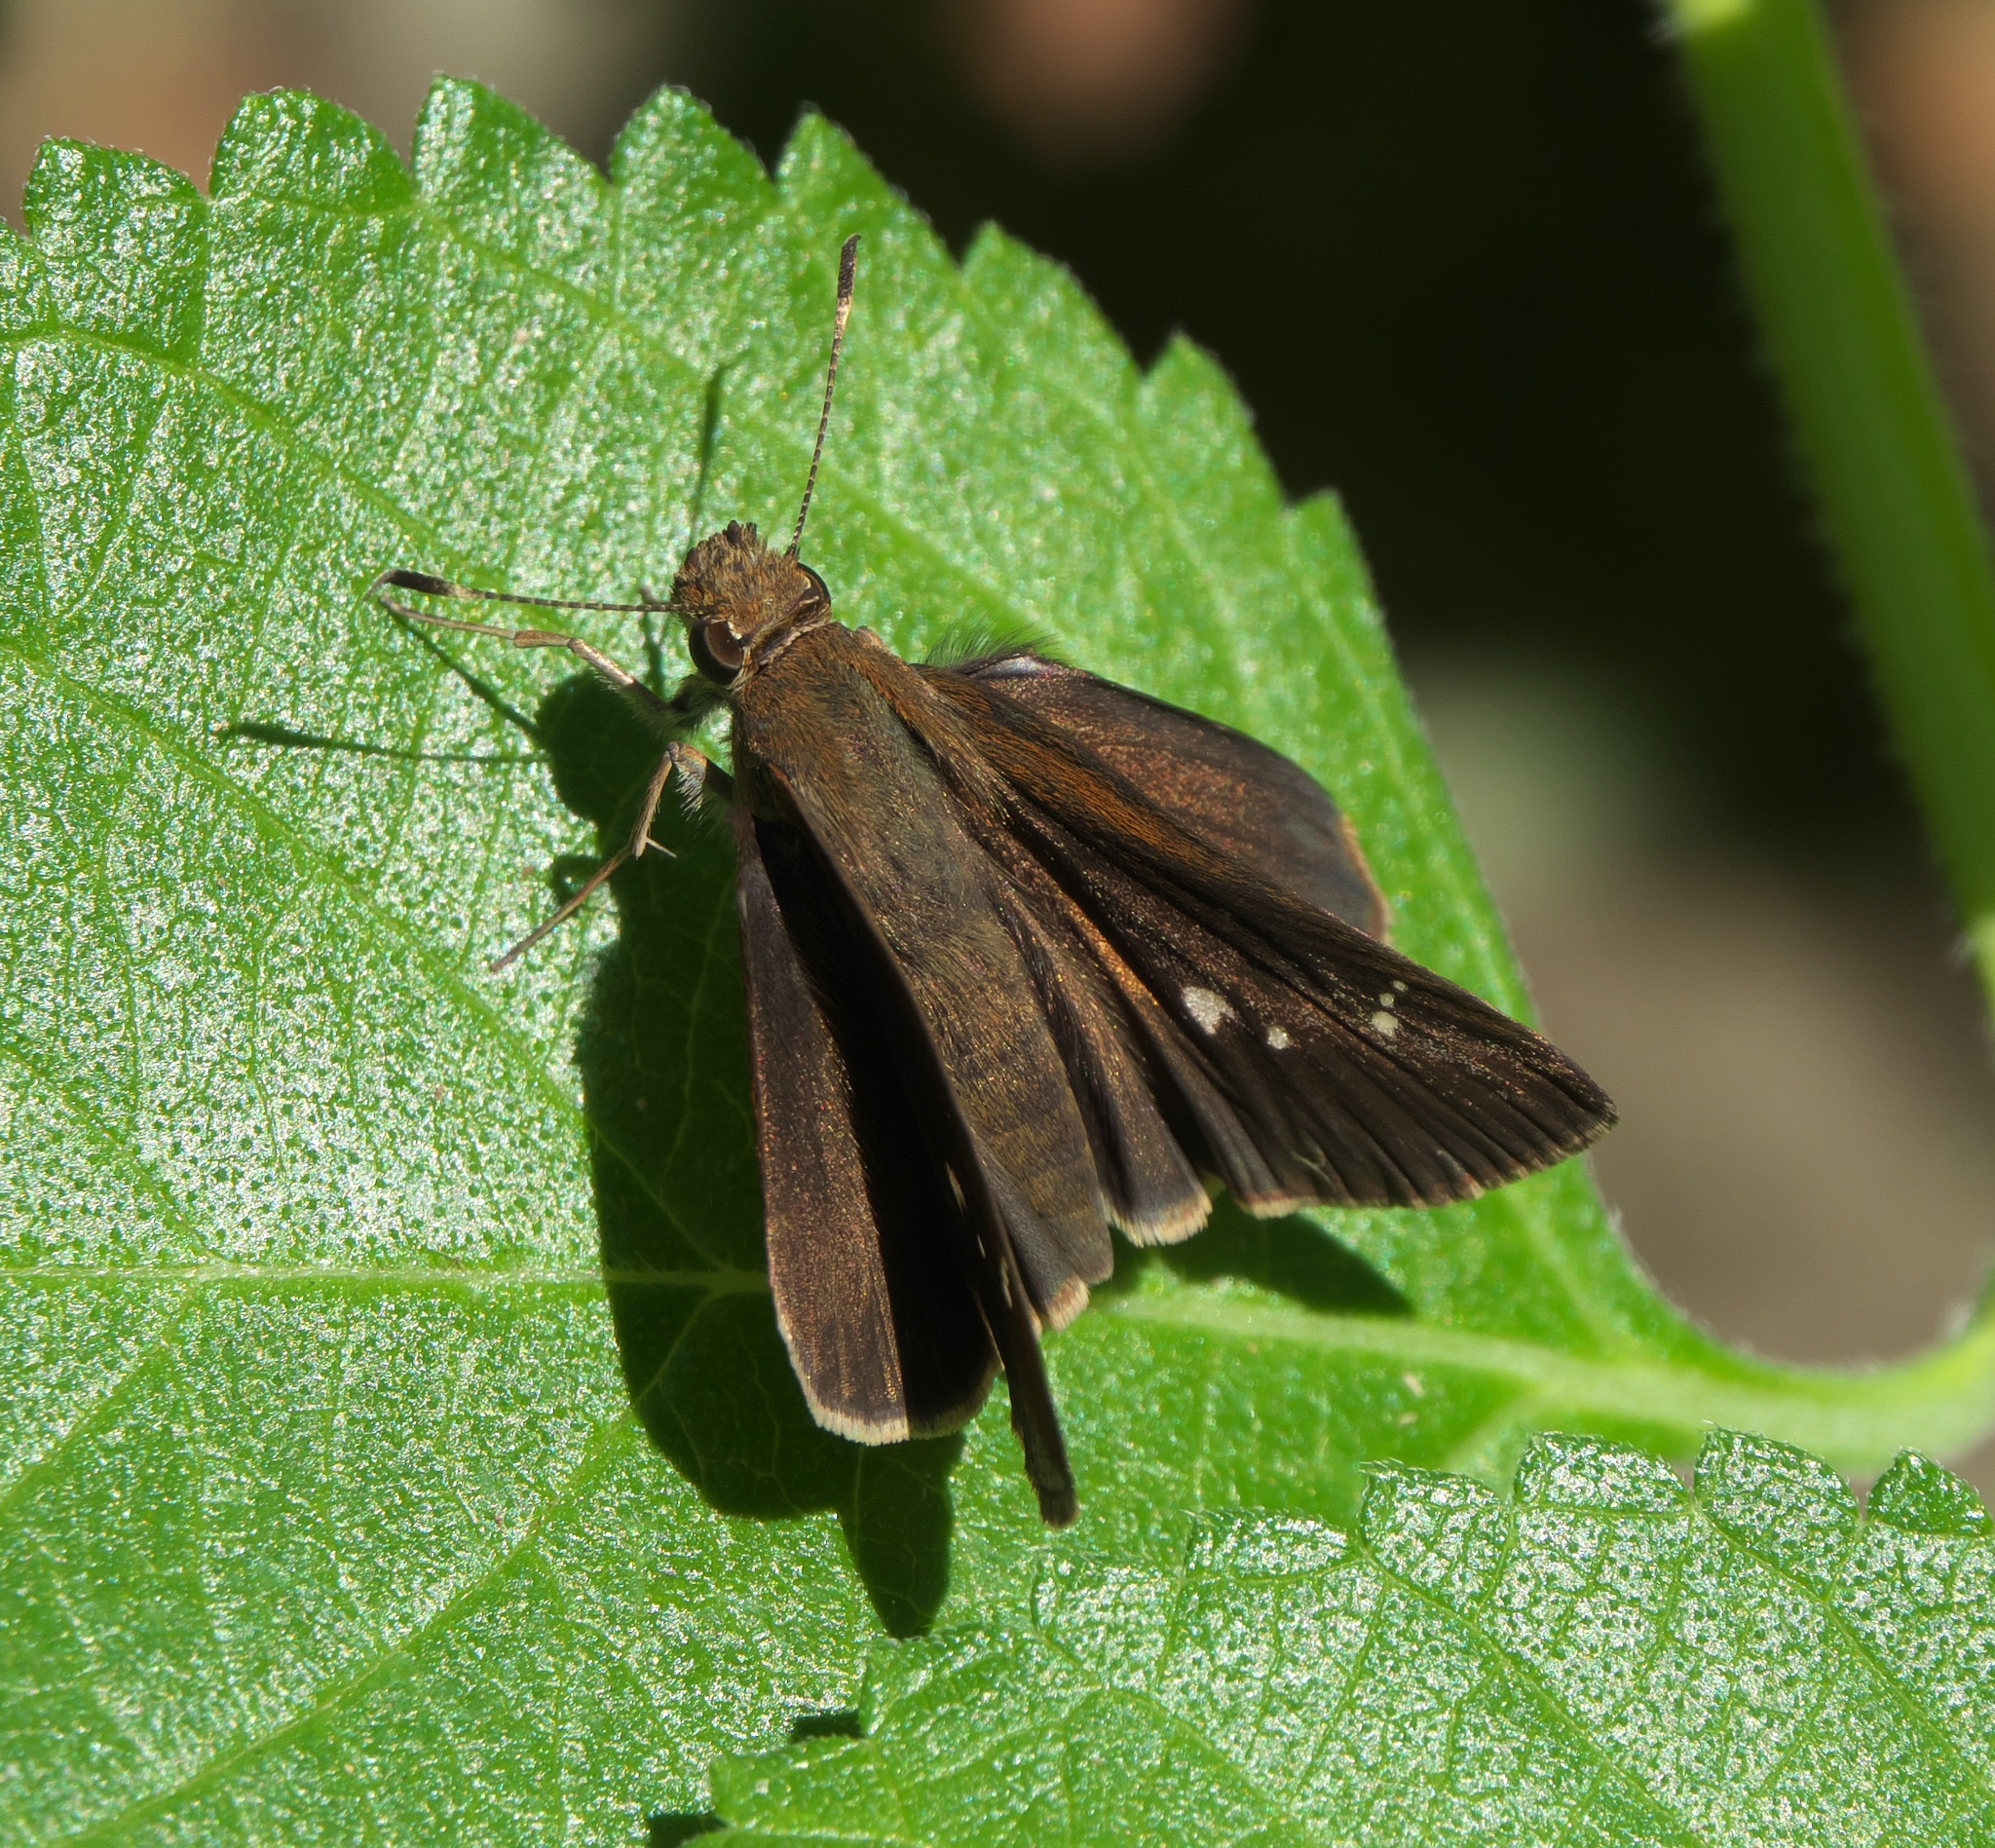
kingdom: Animalia
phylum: Arthropoda
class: Insecta
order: Lepidoptera
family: Hesperiidae
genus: Lerema
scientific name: Lerema accius
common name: Clouded skipper
